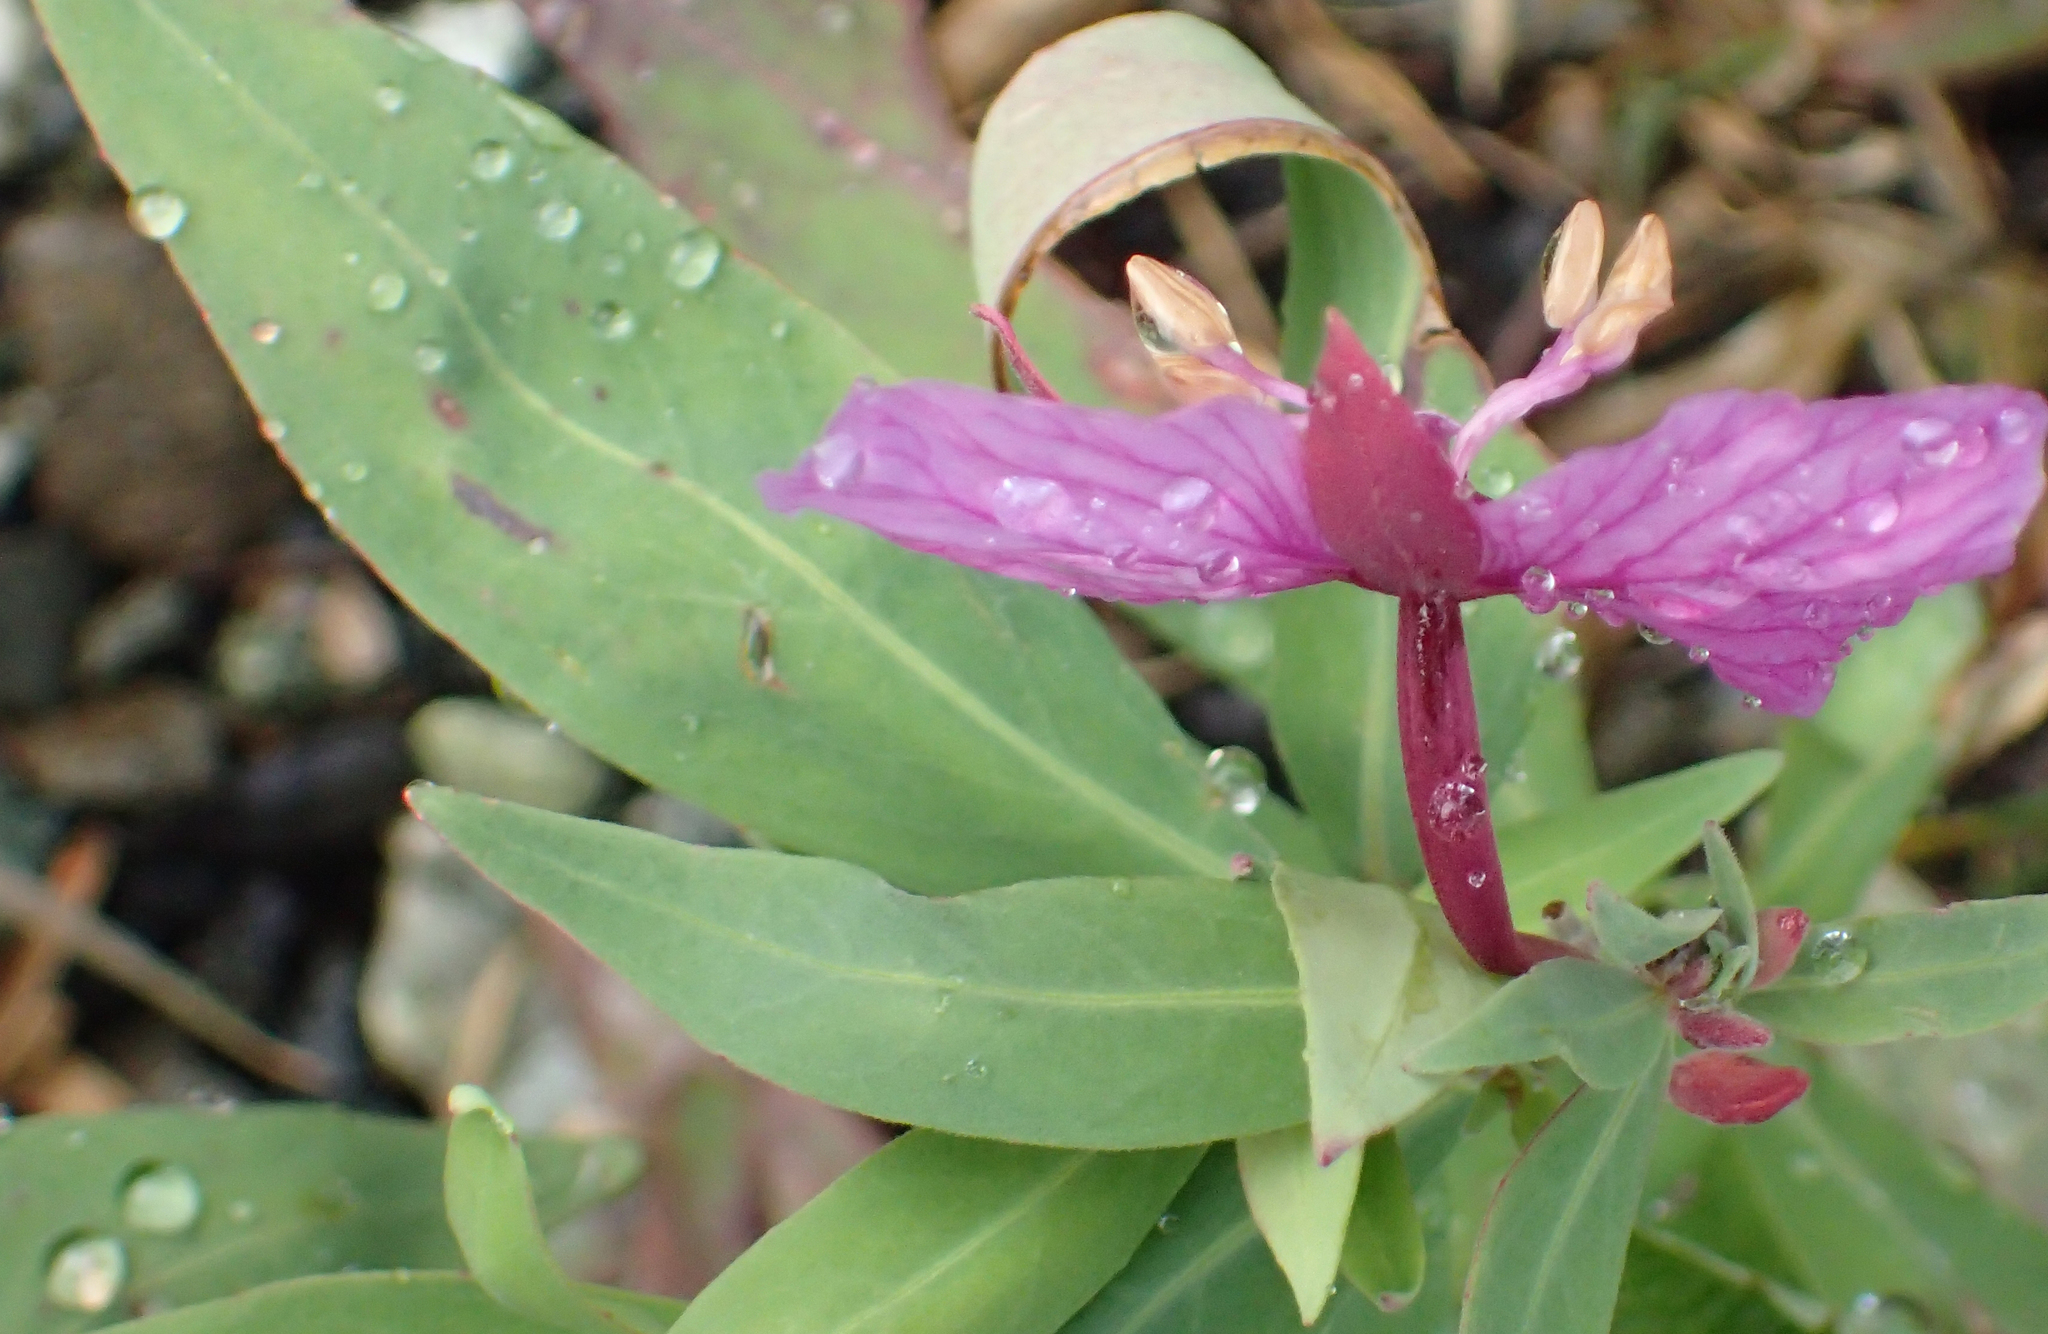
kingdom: Plantae
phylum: Tracheophyta
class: Magnoliopsida
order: Myrtales
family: Onagraceae
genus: Chamaenerion
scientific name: Chamaenerion latifolium
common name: Dwarf fireweed
